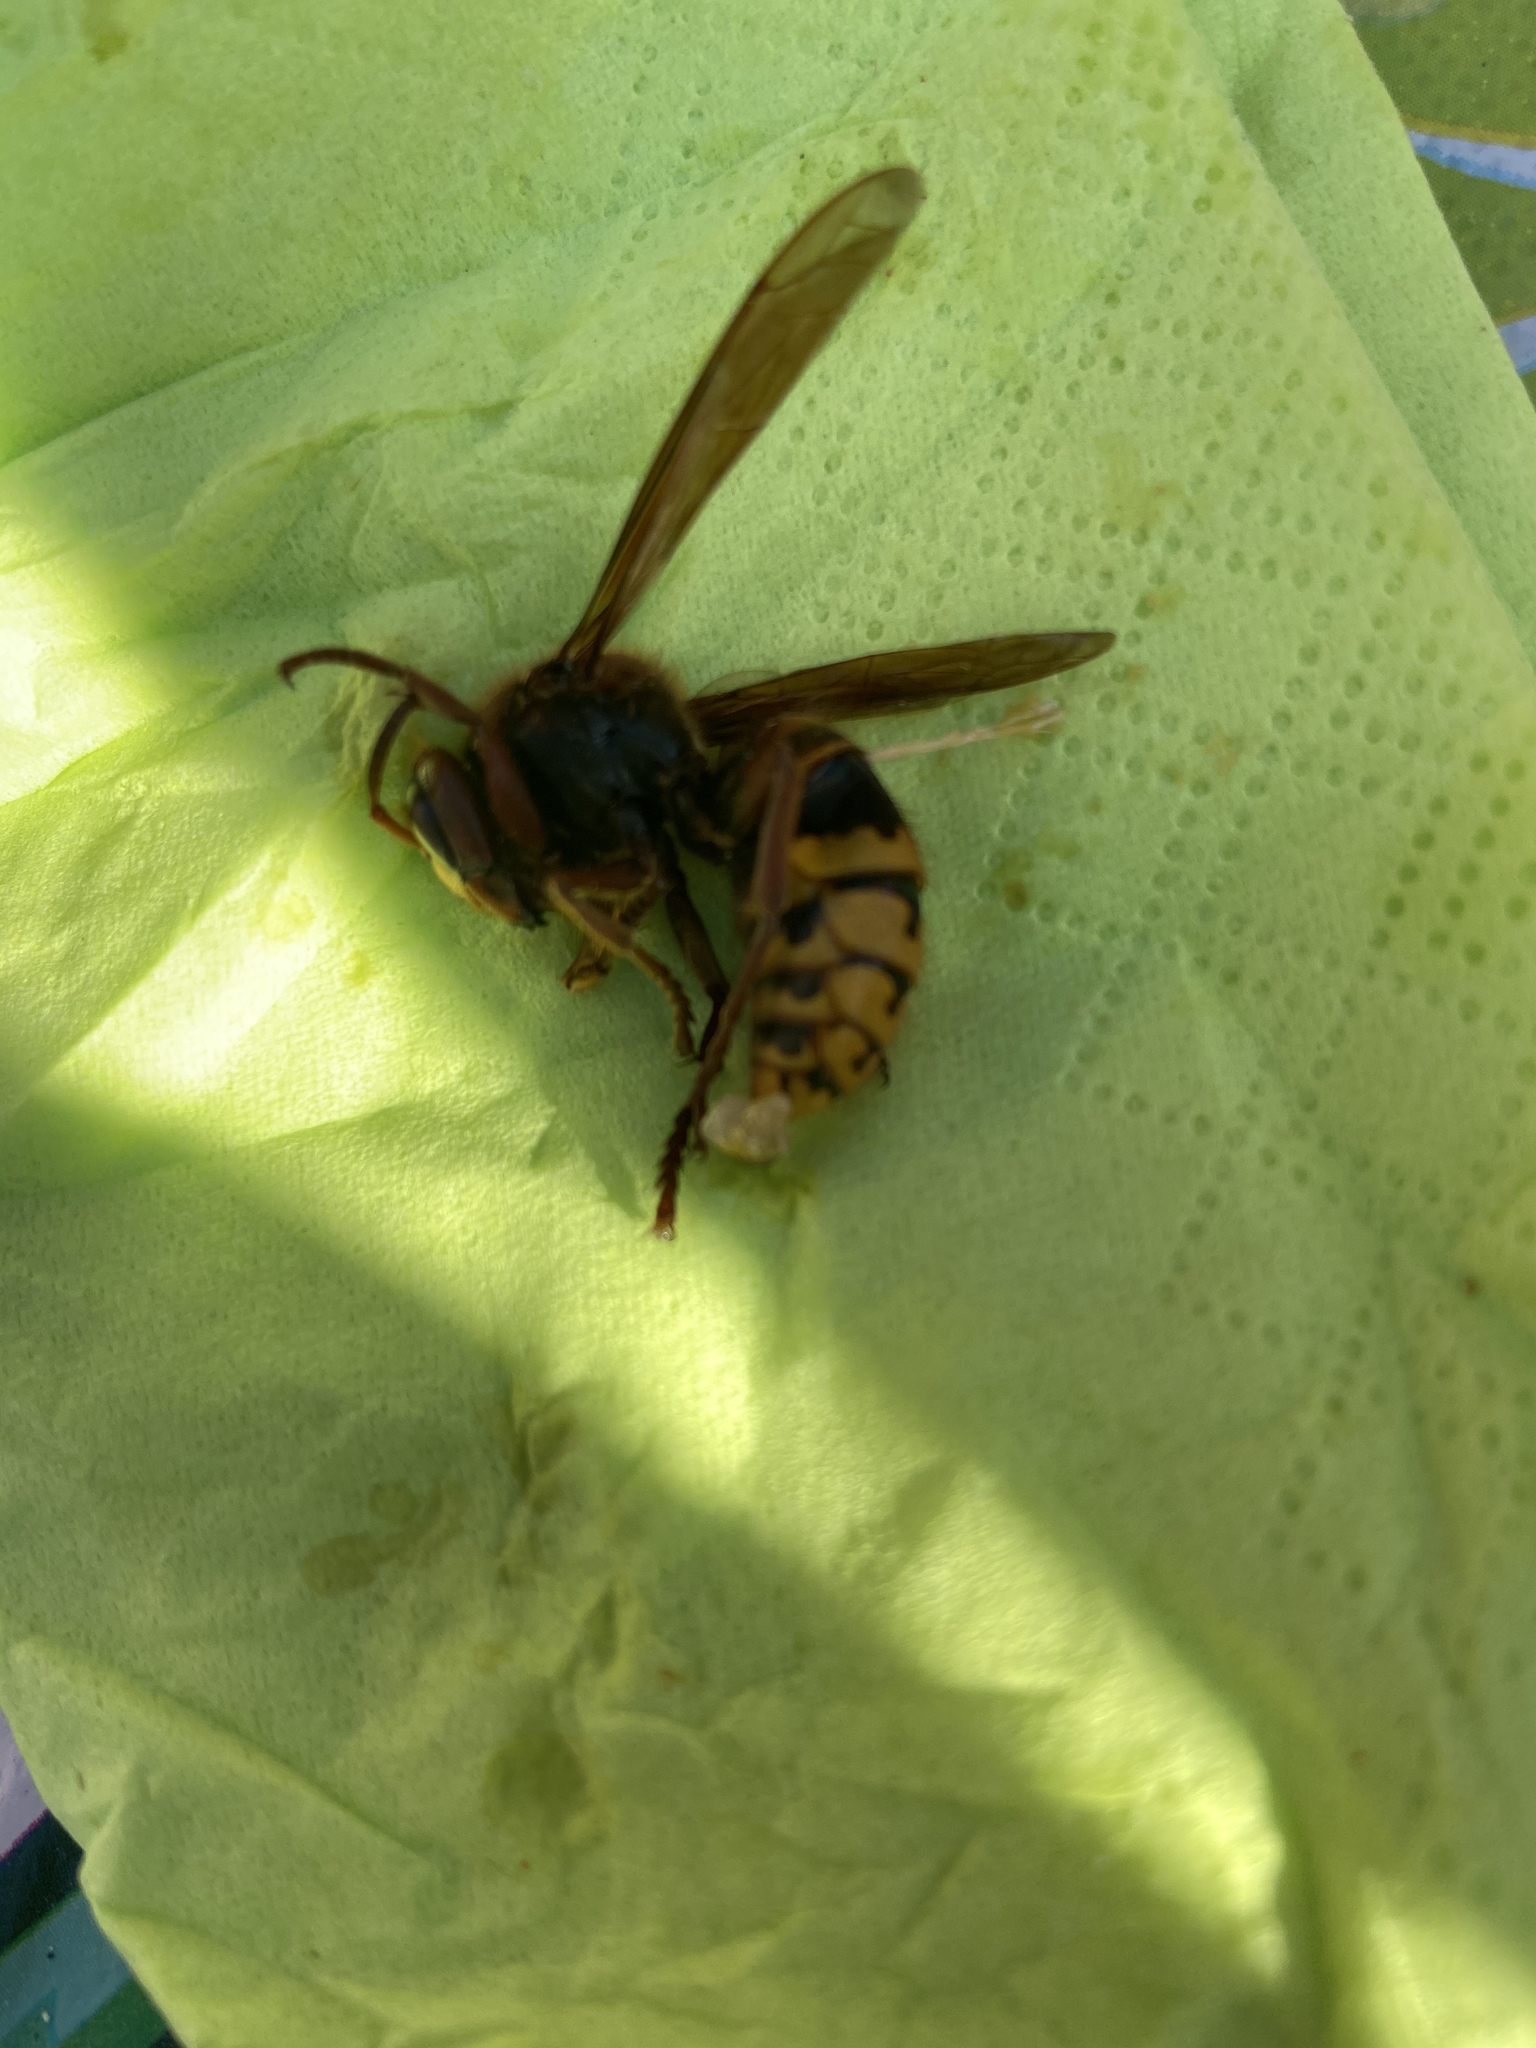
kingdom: Animalia
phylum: Arthropoda
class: Insecta
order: Hymenoptera
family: Vespidae
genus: Vespa
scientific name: Vespa crabro
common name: Hornet
